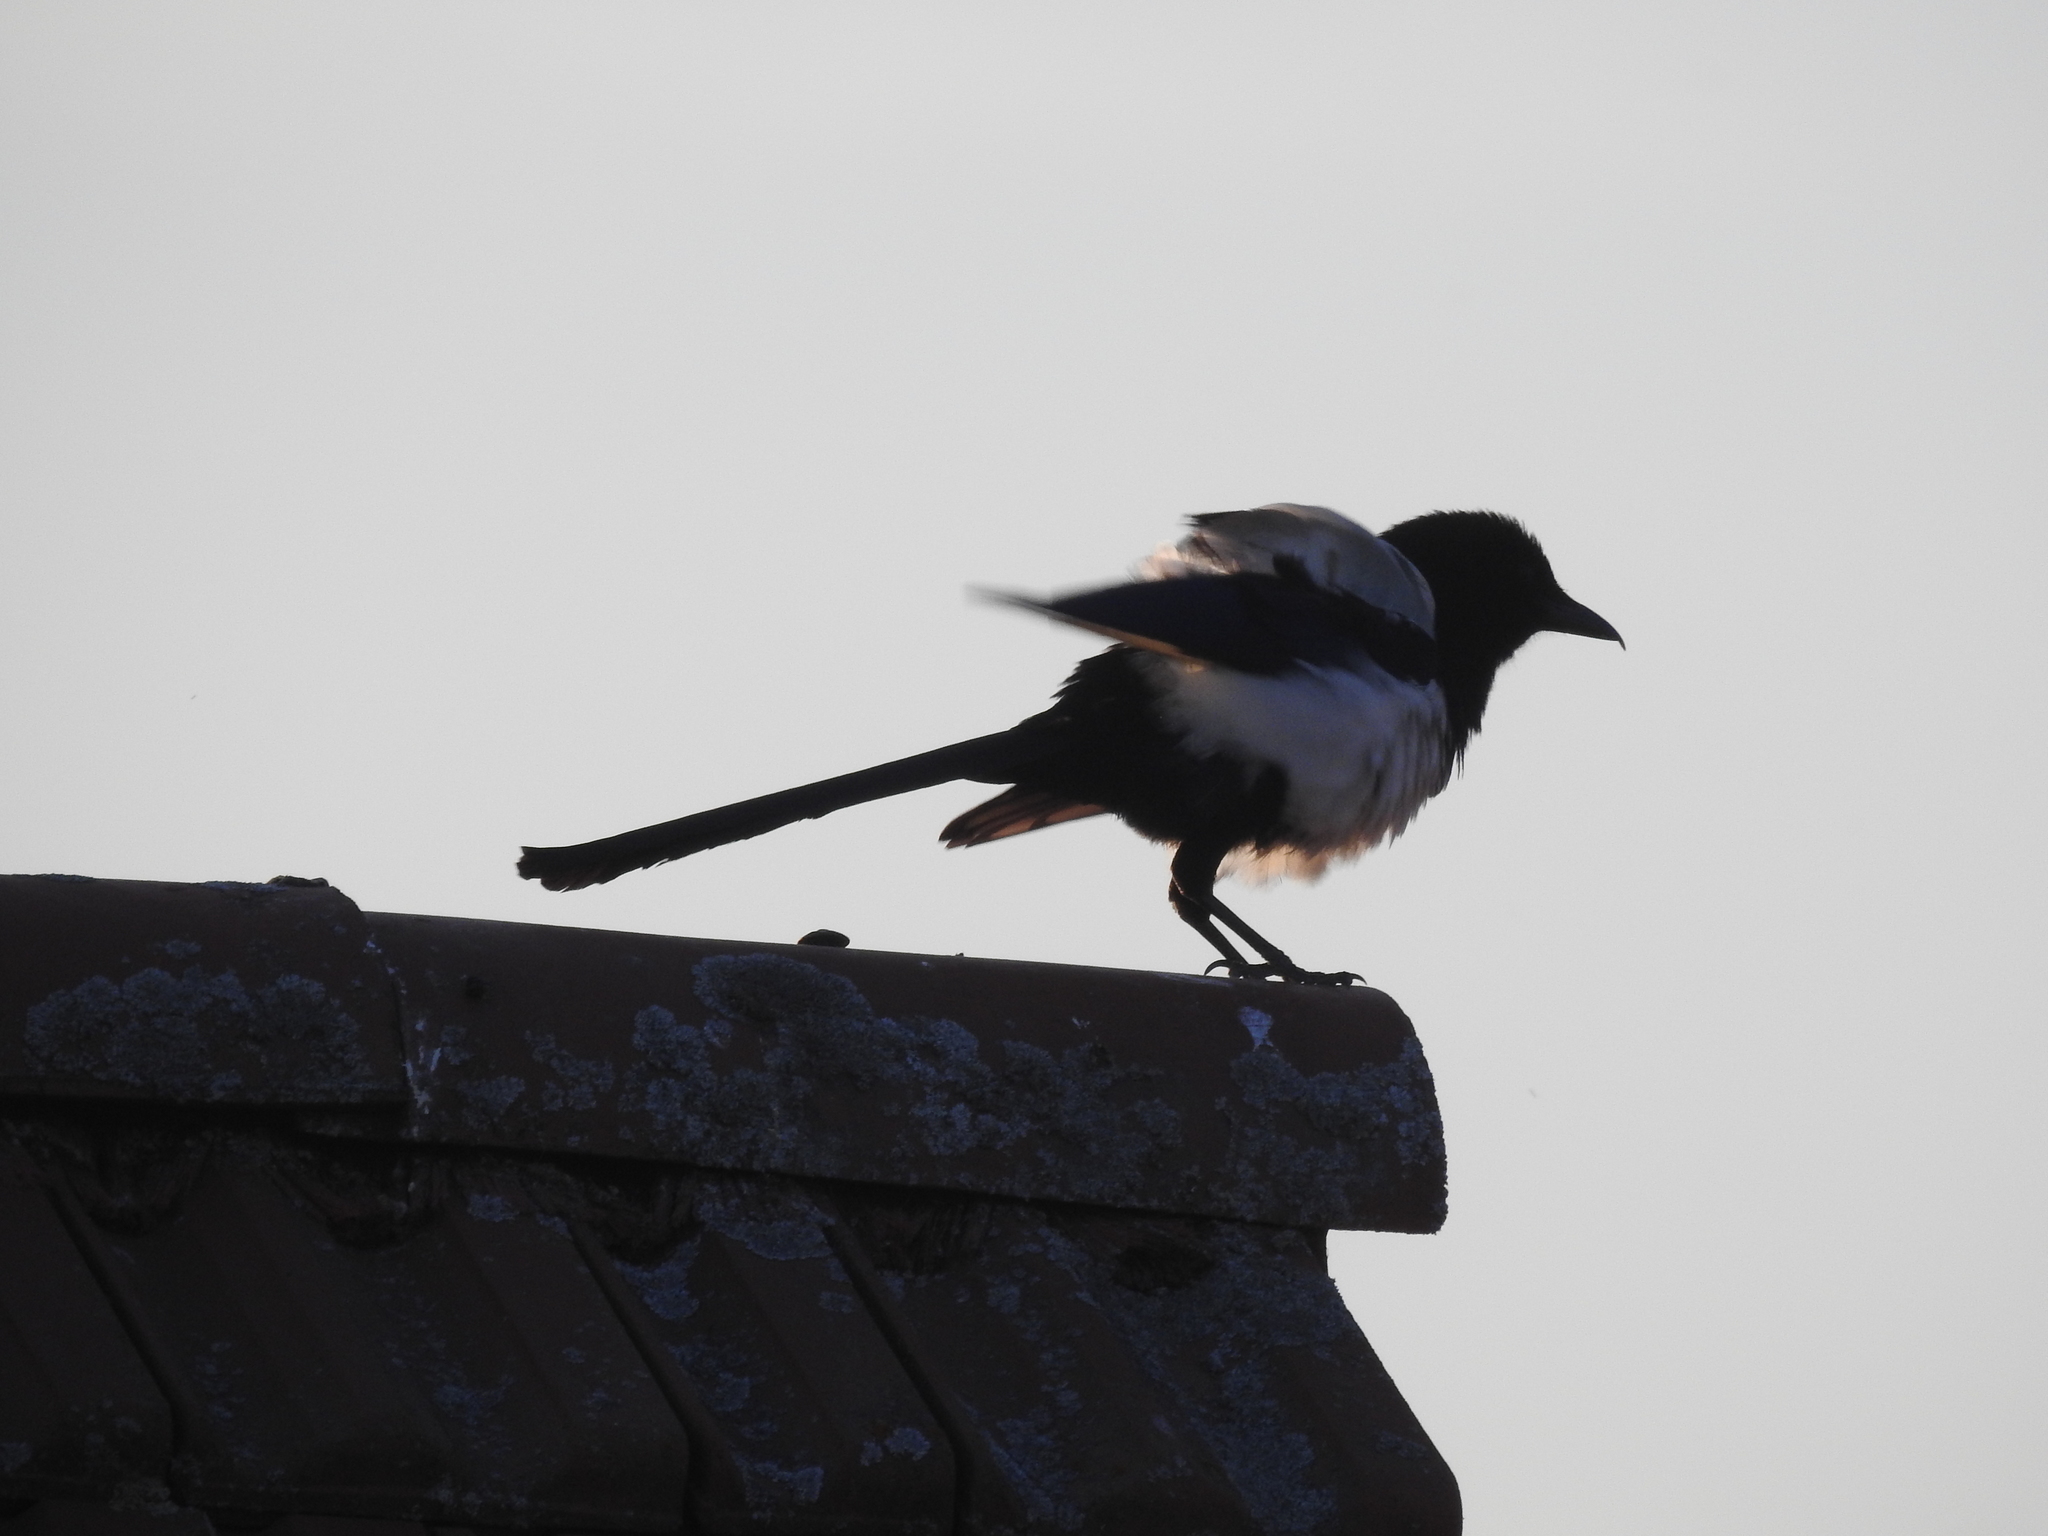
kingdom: Animalia
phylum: Chordata
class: Aves
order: Passeriformes
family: Corvidae
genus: Pica
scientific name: Pica pica
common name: Eurasian magpie
